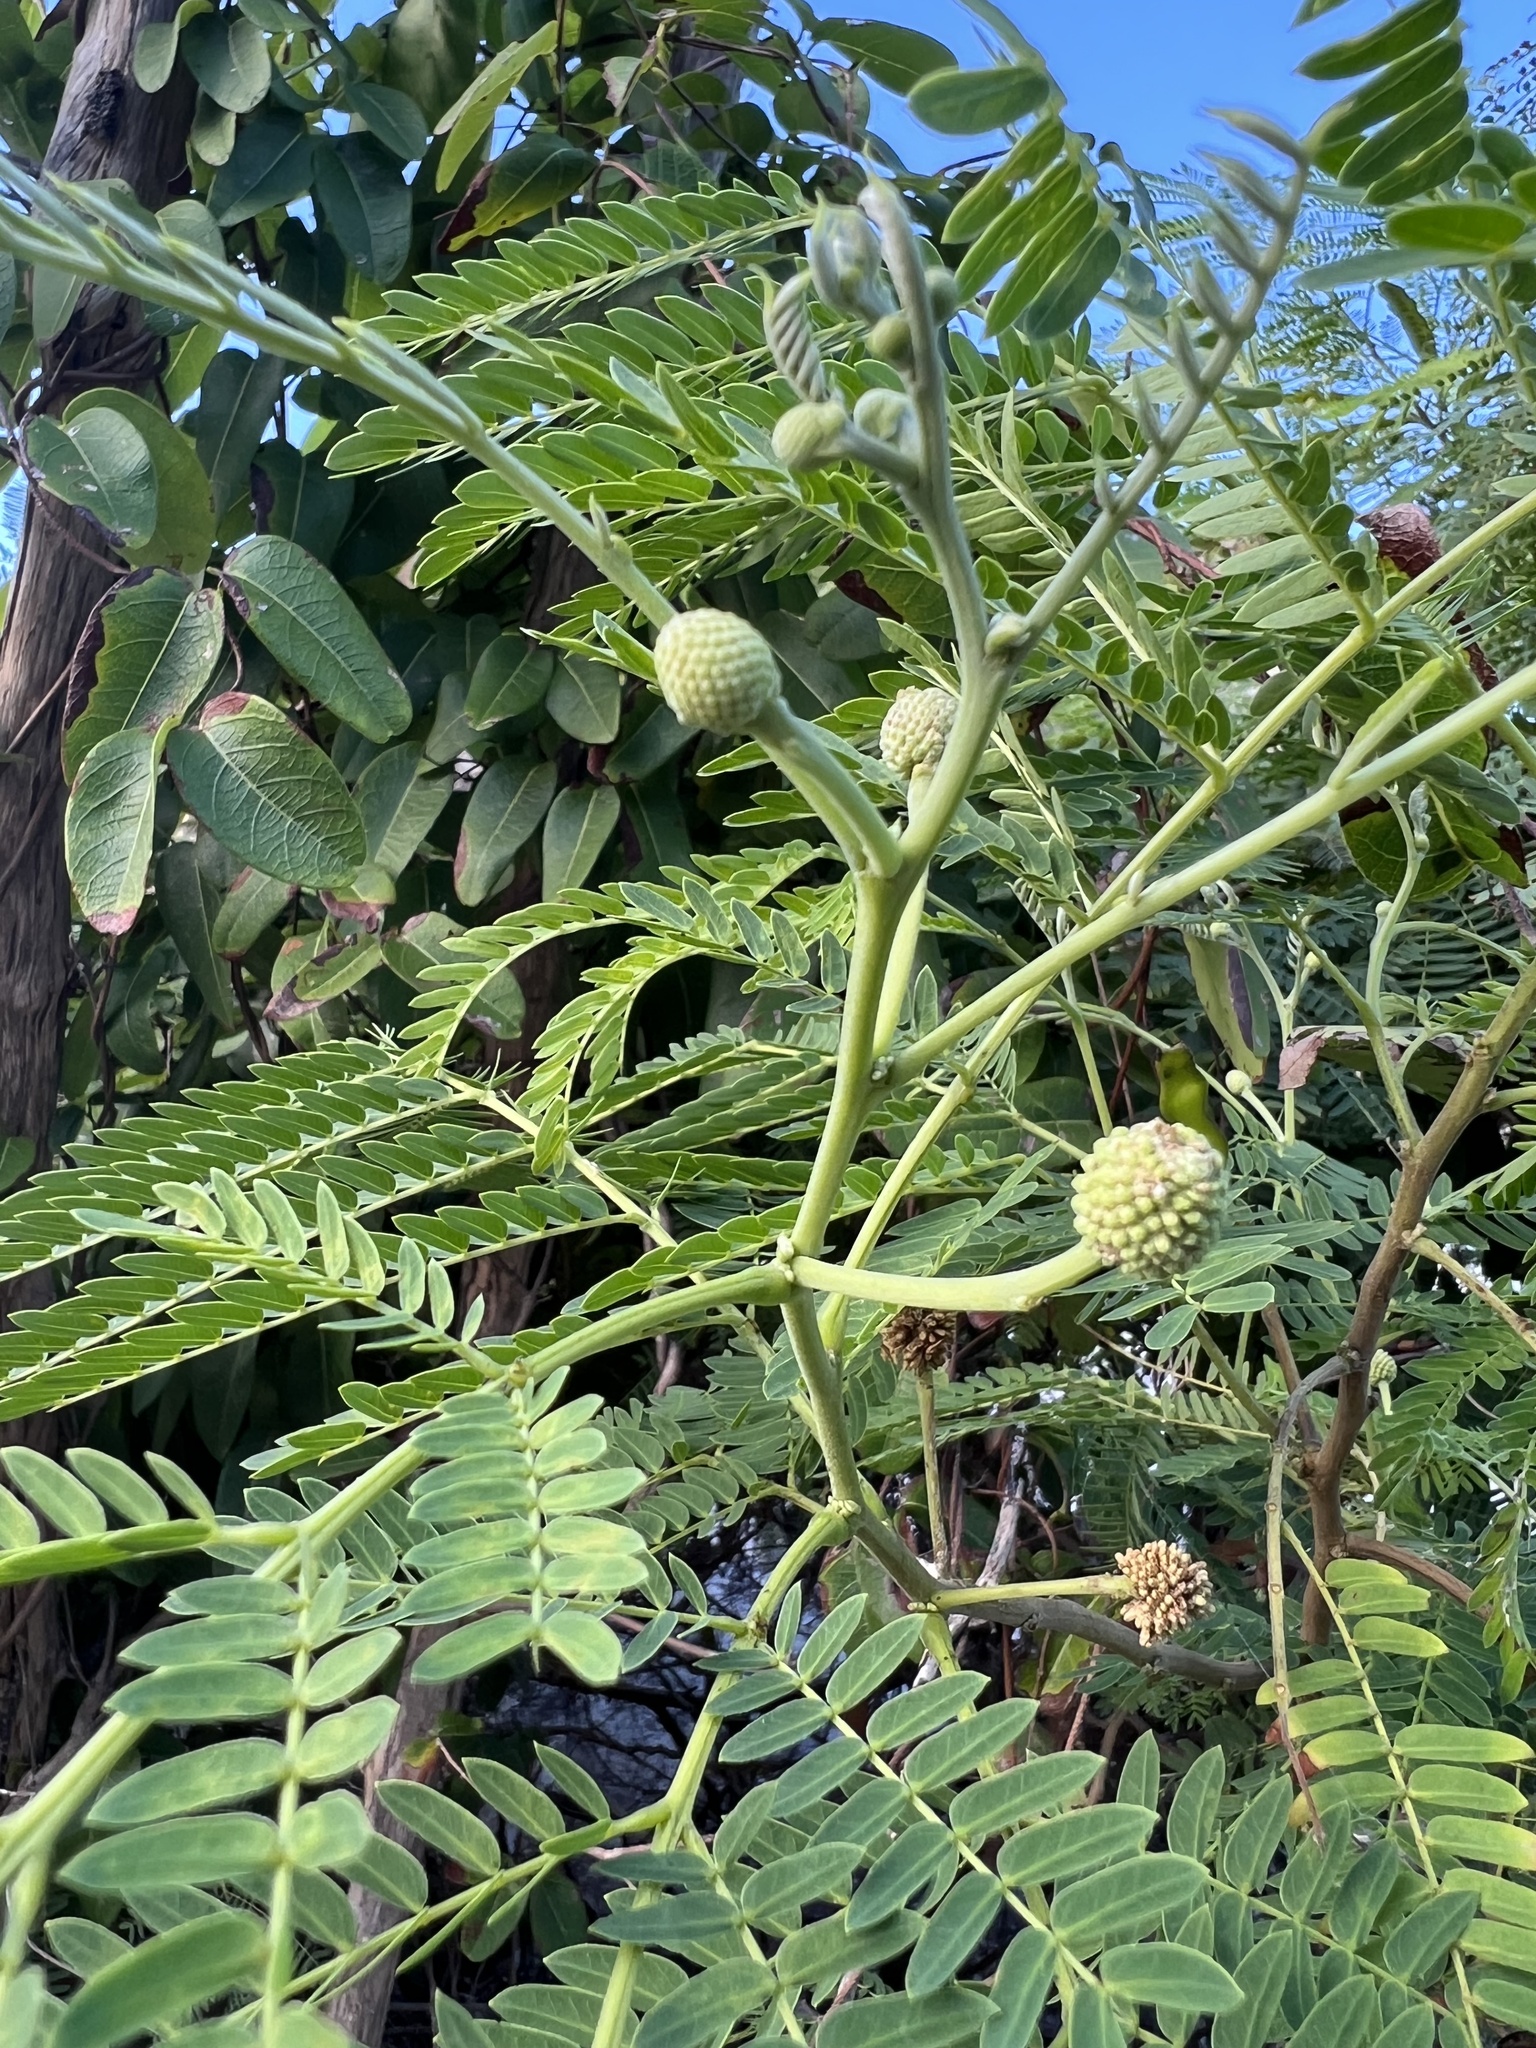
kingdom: Plantae
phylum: Tracheophyta
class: Magnoliopsida
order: Fabales
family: Fabaceae
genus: Leucaena
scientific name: Leucaena leucocephala
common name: White leadtree
